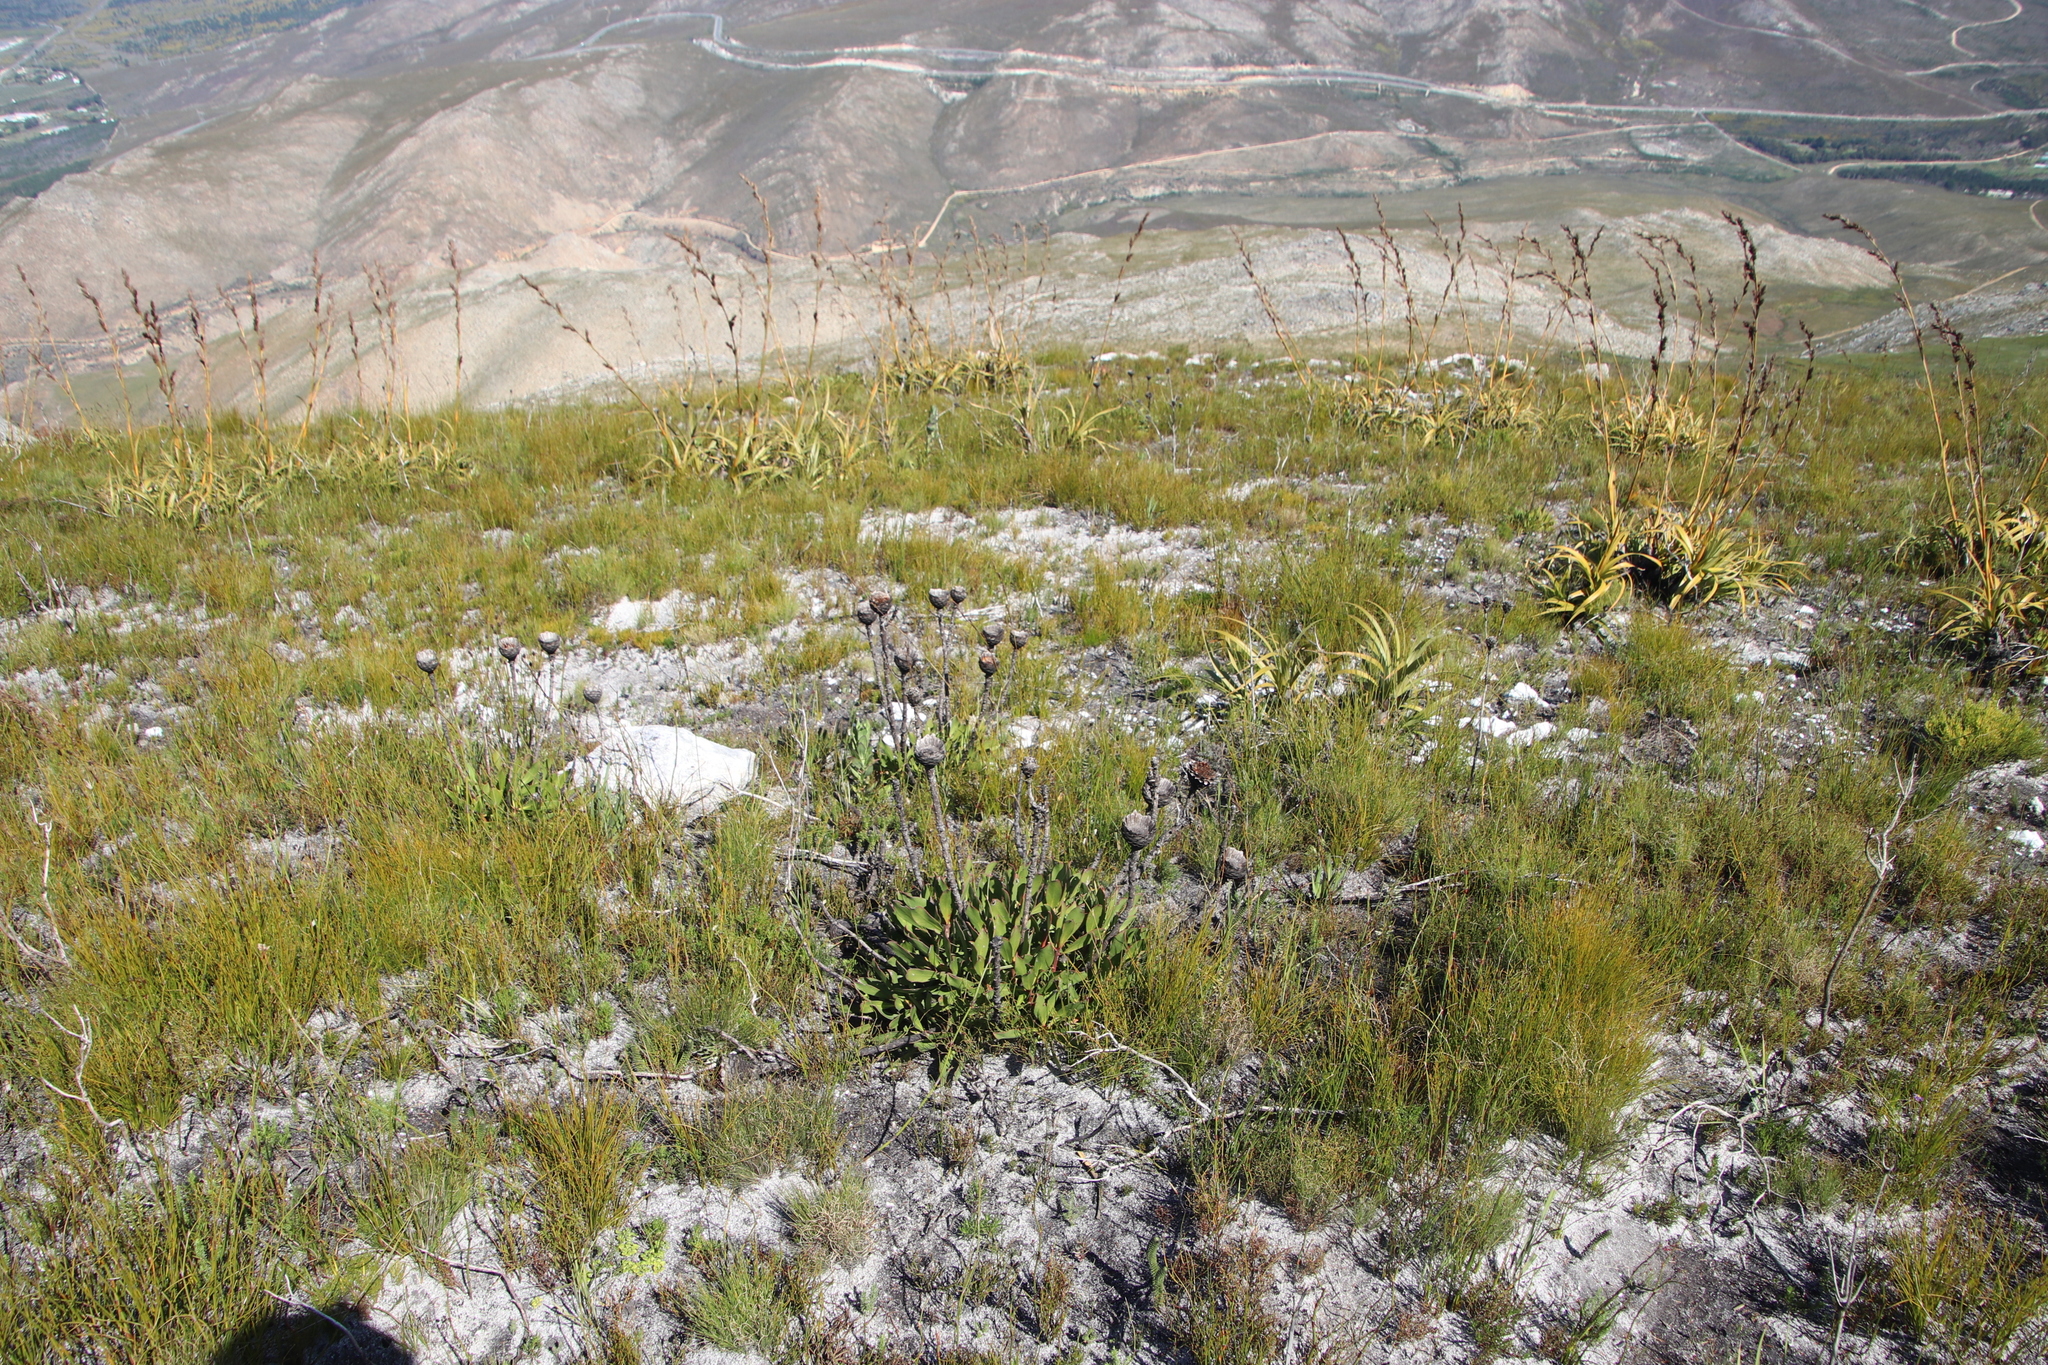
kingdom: Plantae
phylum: Tracheophyta
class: Magnoliopsida
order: Proteales
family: Proteaceae
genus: Protea
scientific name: Protea speciosa
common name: Brown-beard sugarbush
